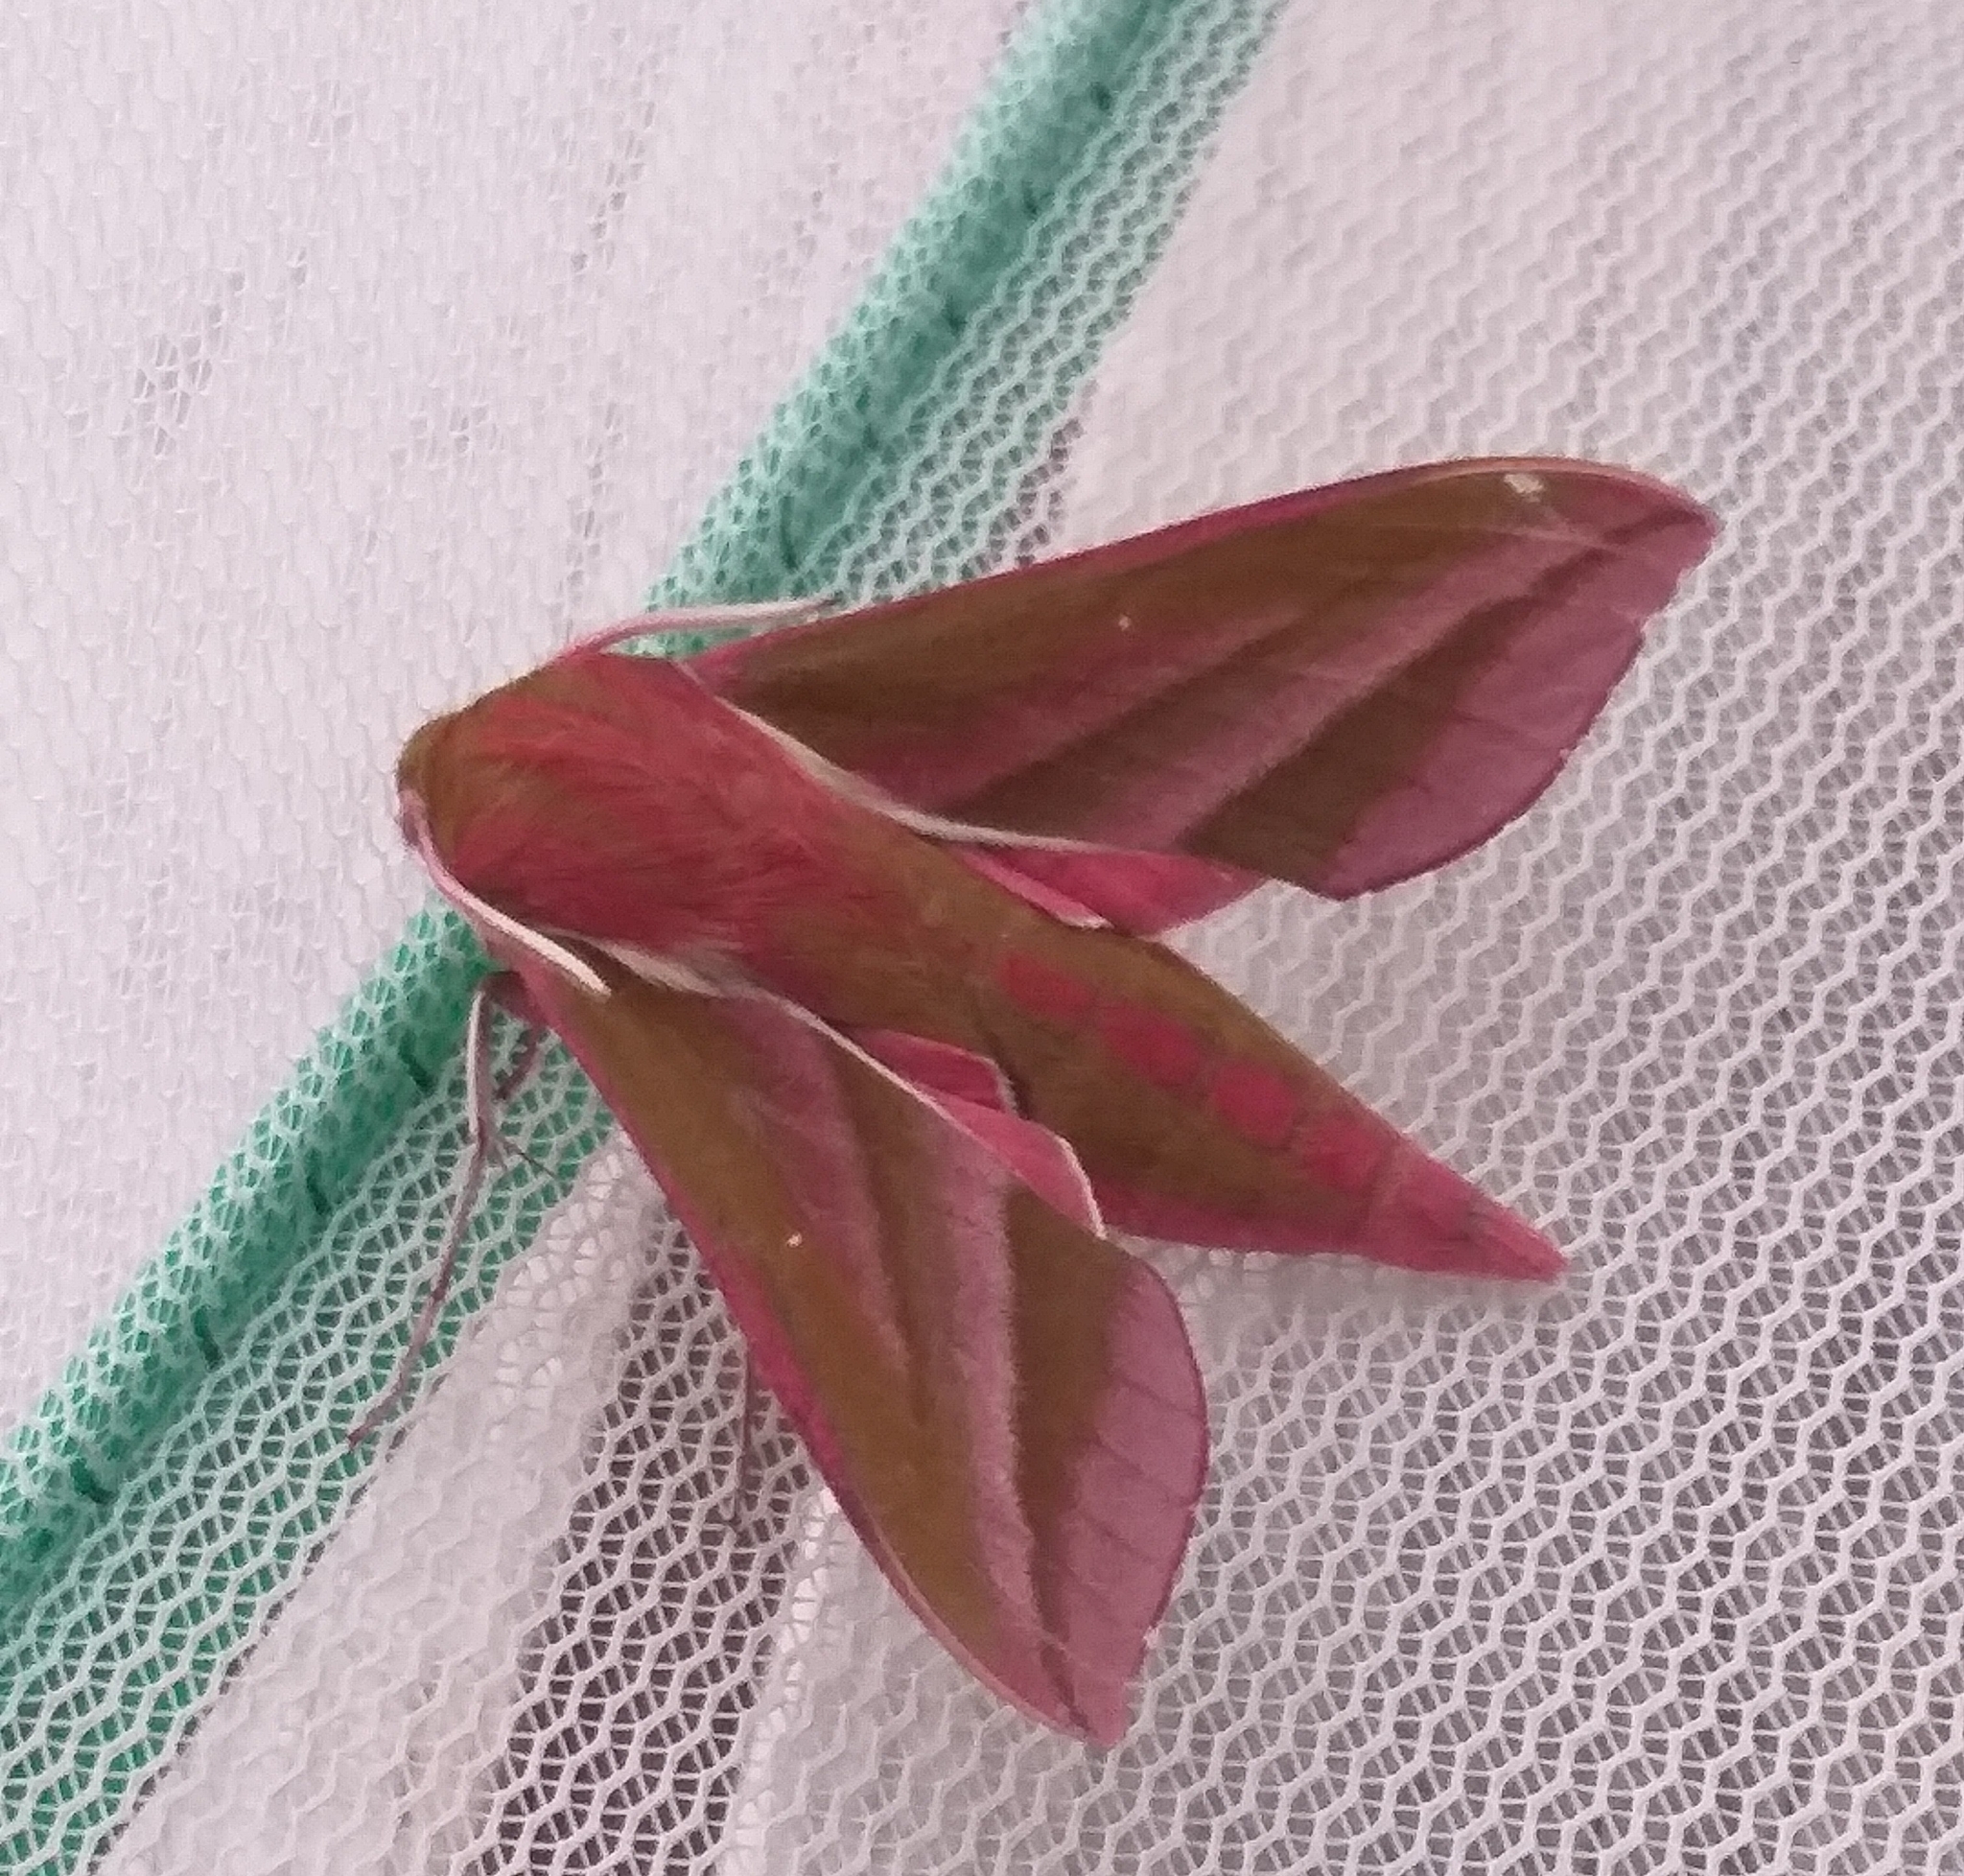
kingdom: Animalia
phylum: Arthropoda
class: Insecta
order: Lepidoptera
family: Sphingidae
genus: Deilephila
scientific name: Deilephila elpenor
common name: Elephant hawk-moth
